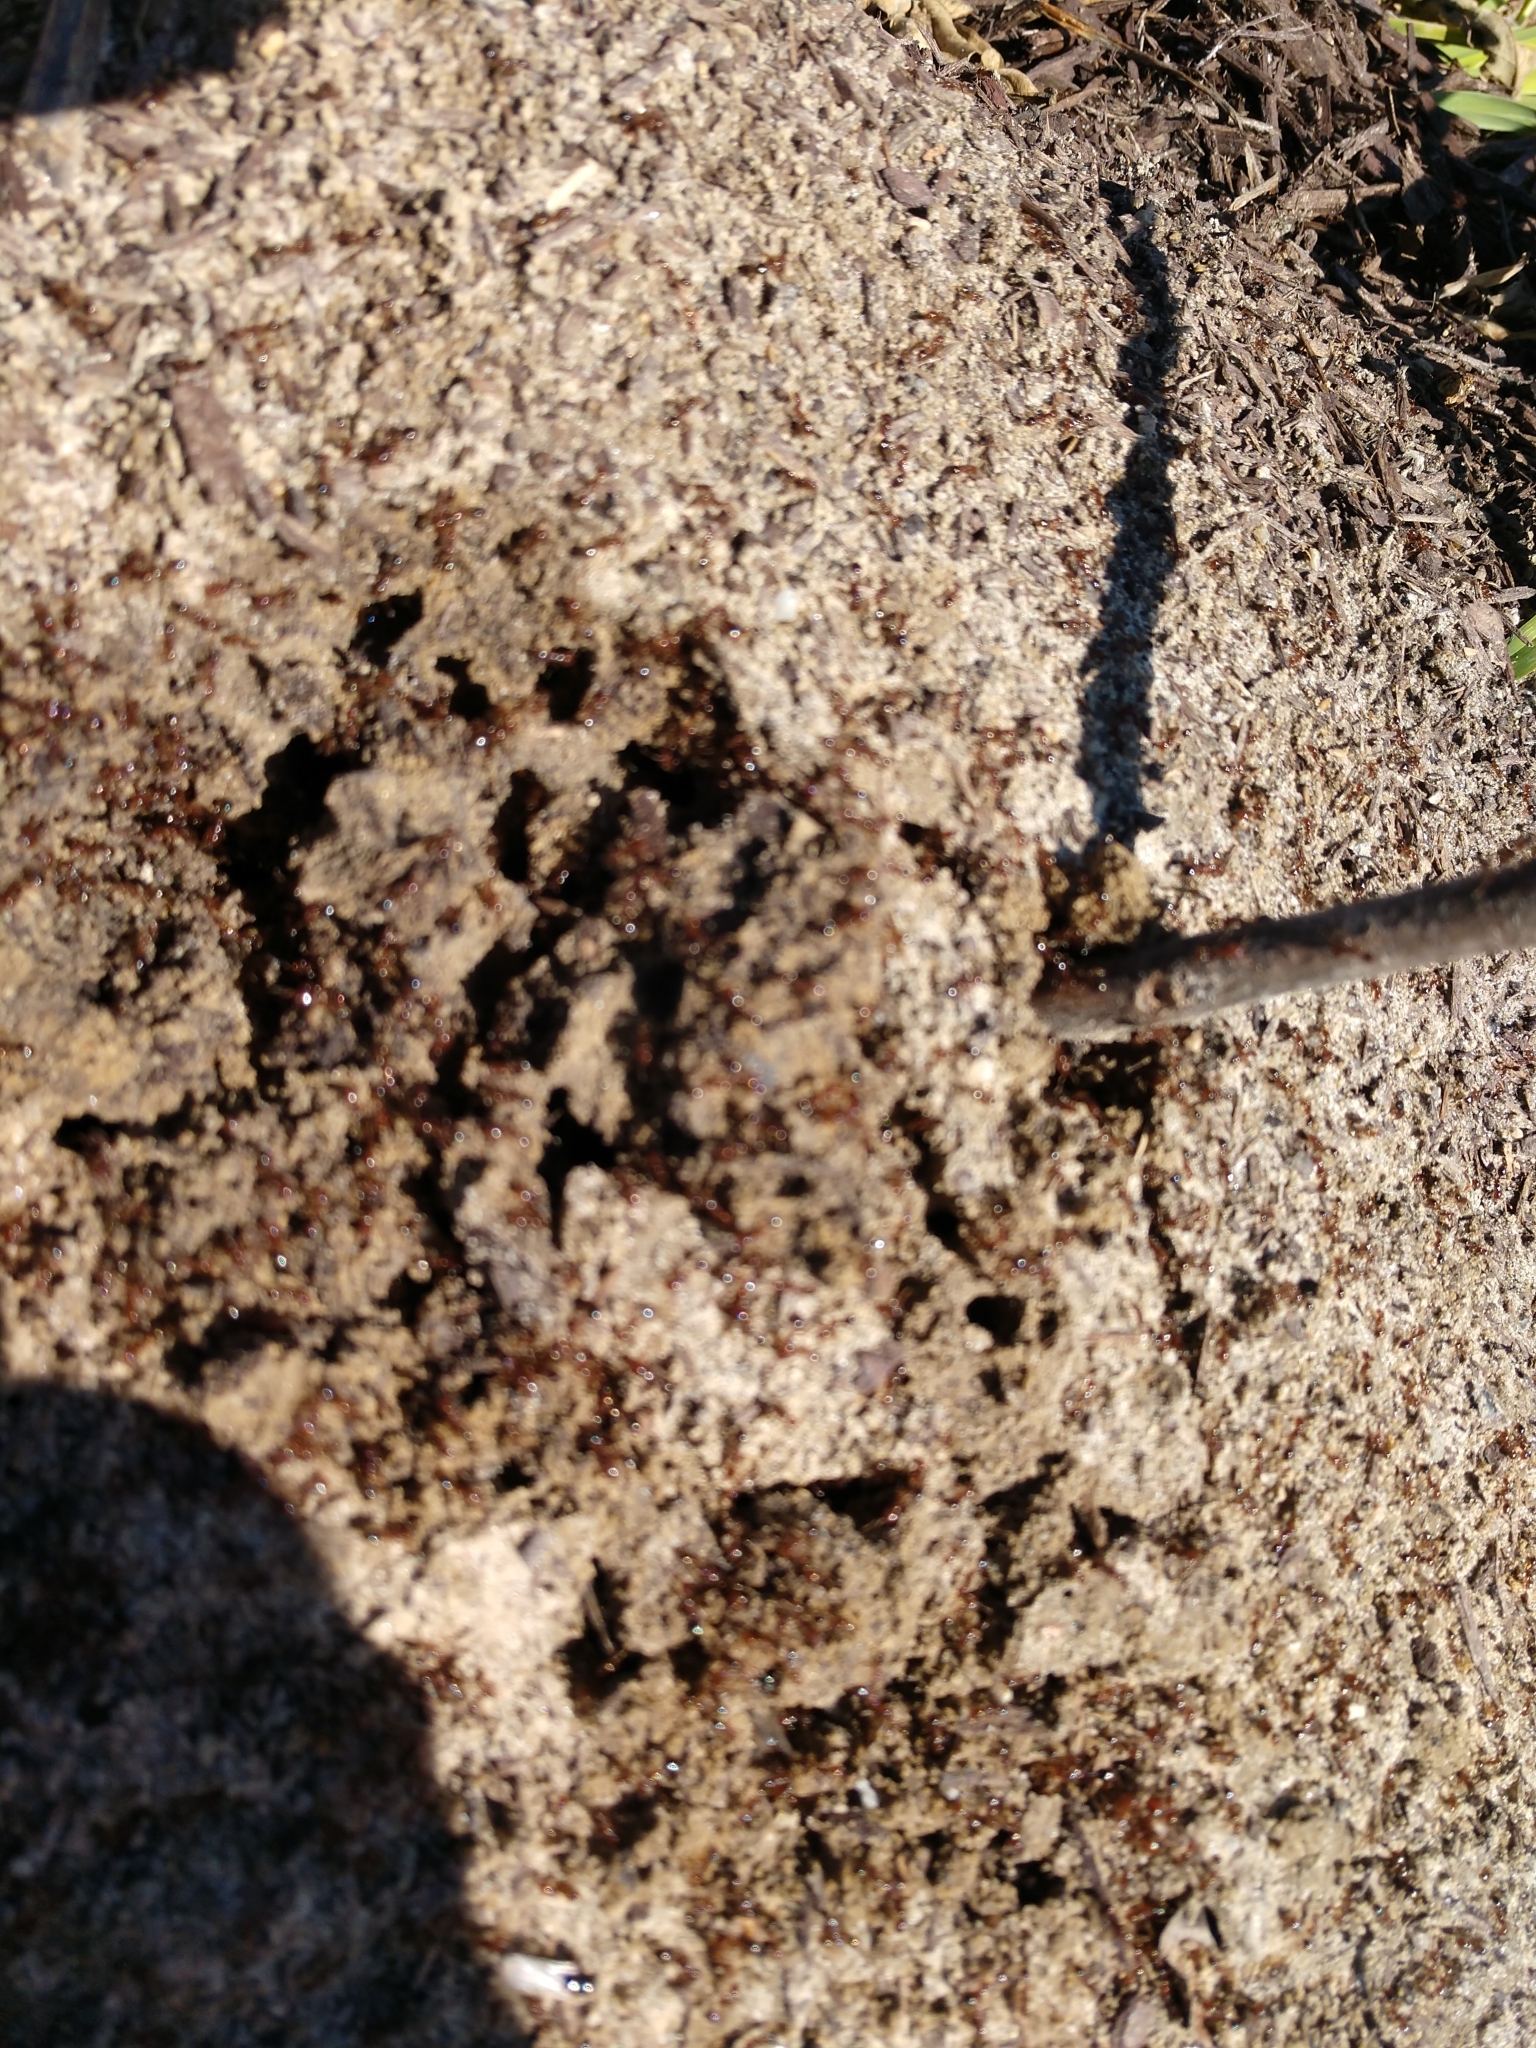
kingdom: Animalia
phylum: Arthropoda
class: Insecta
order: Hymenoptera
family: Formicidae
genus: Solenopsis
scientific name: Solenopsis invicta
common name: Red imported fire ant
